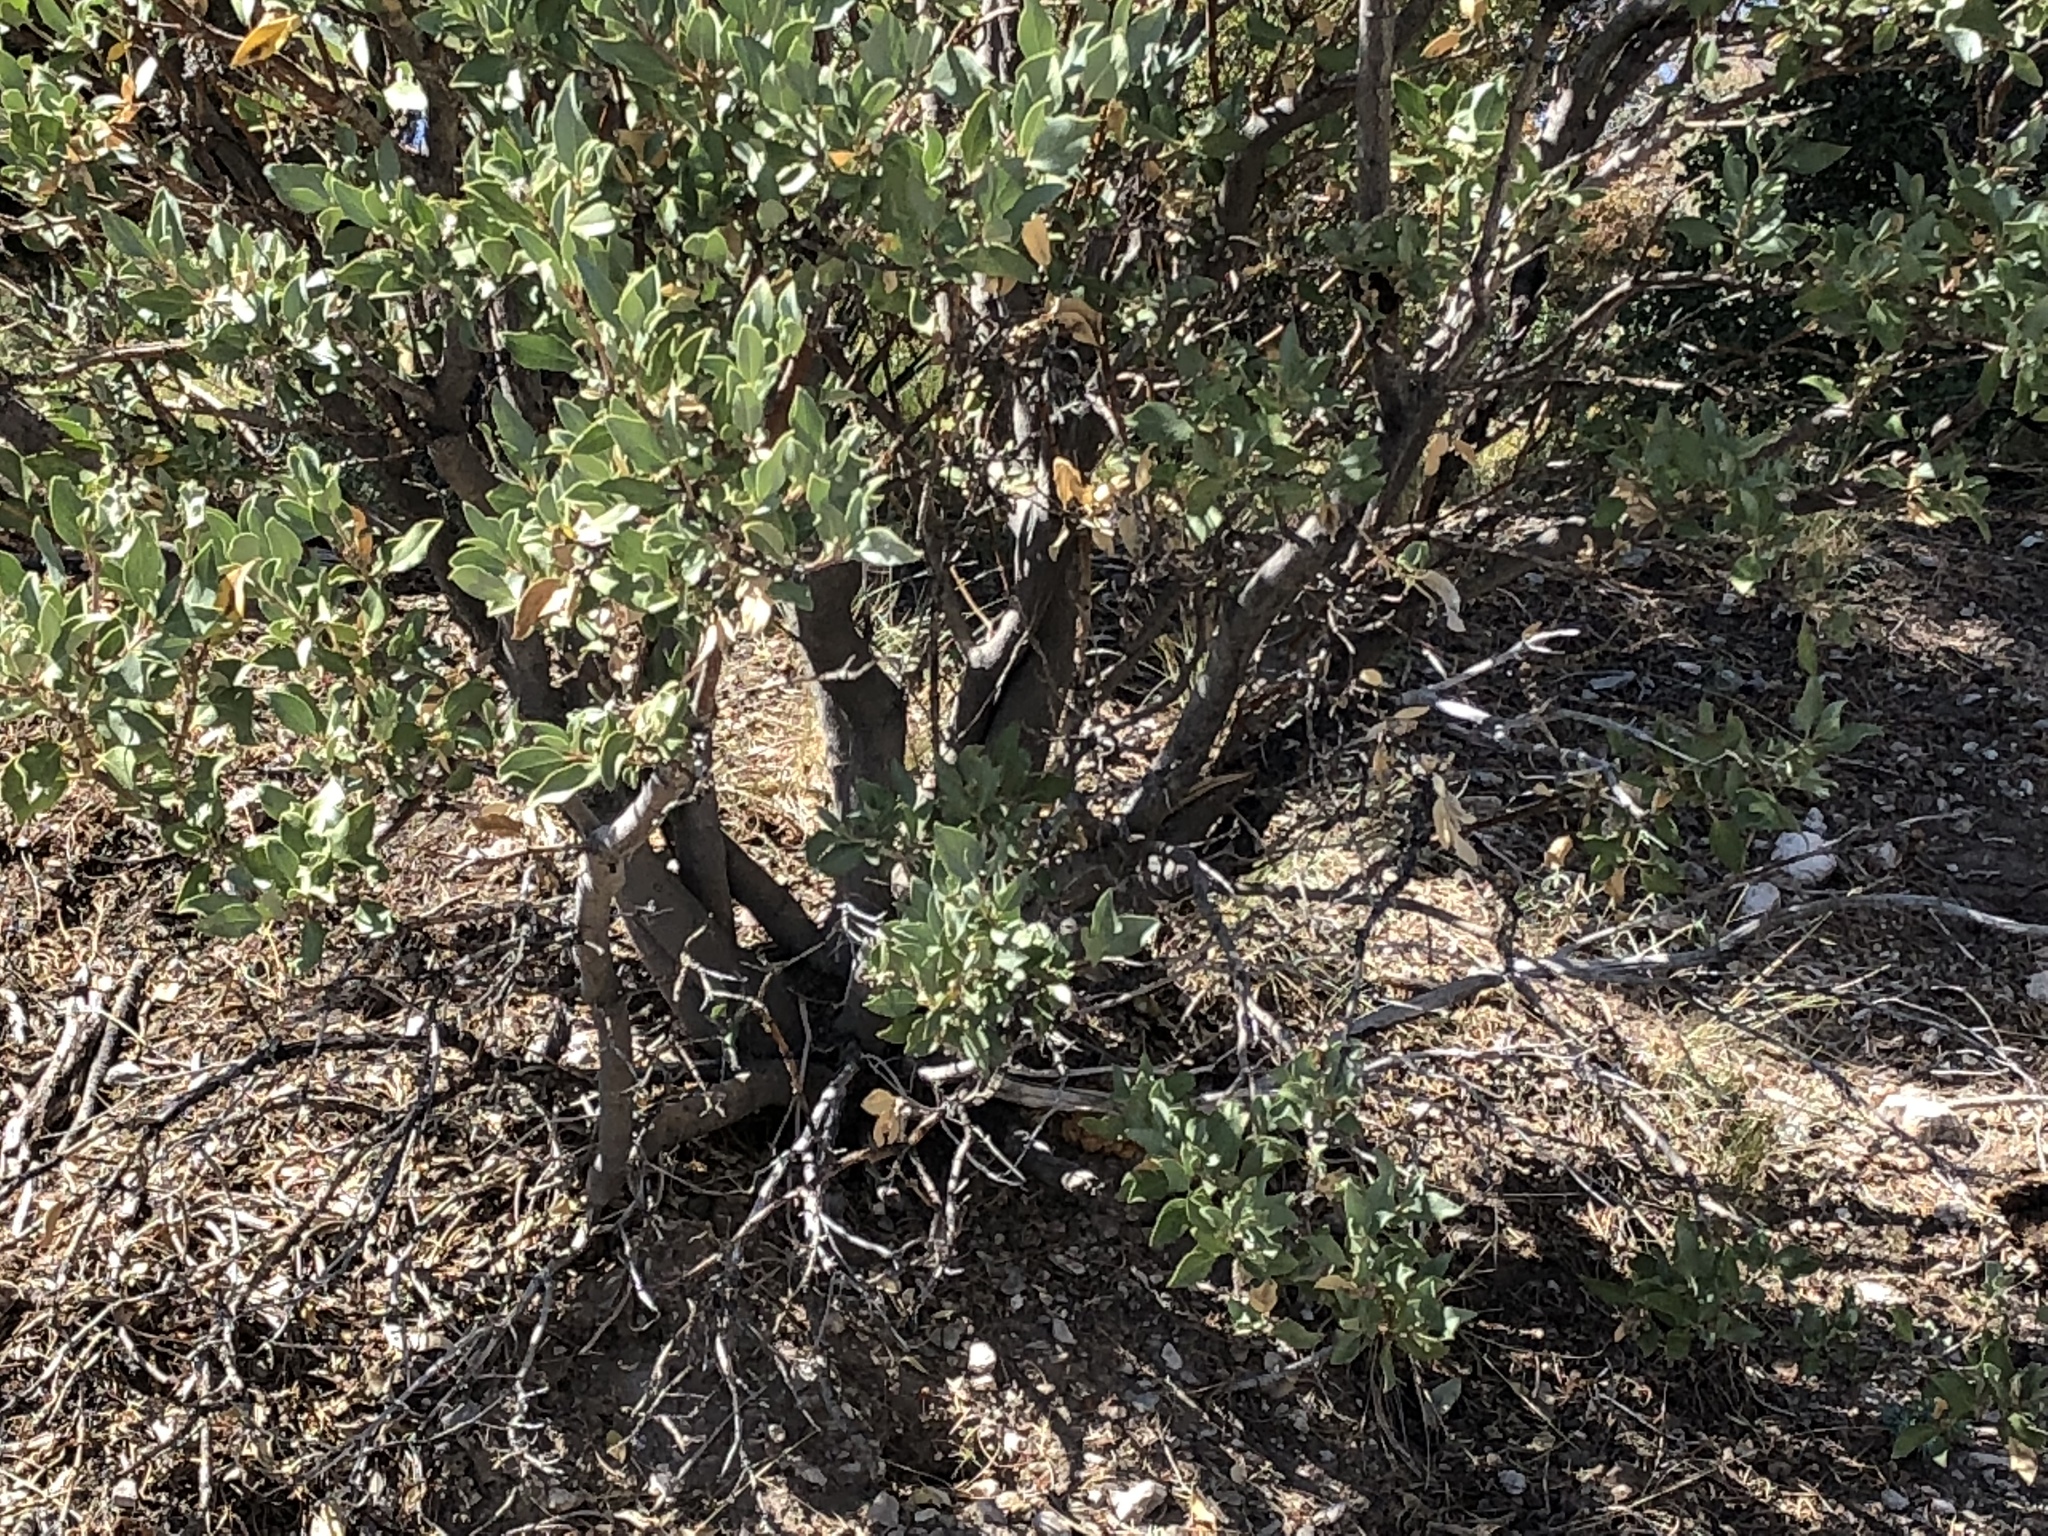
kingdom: Plantae
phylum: Tracheophyta
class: Magnoliopsida
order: Garryales
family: Garryaceae
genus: Garrya
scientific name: Garrya flavescens
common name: Ashy silk-tassel
